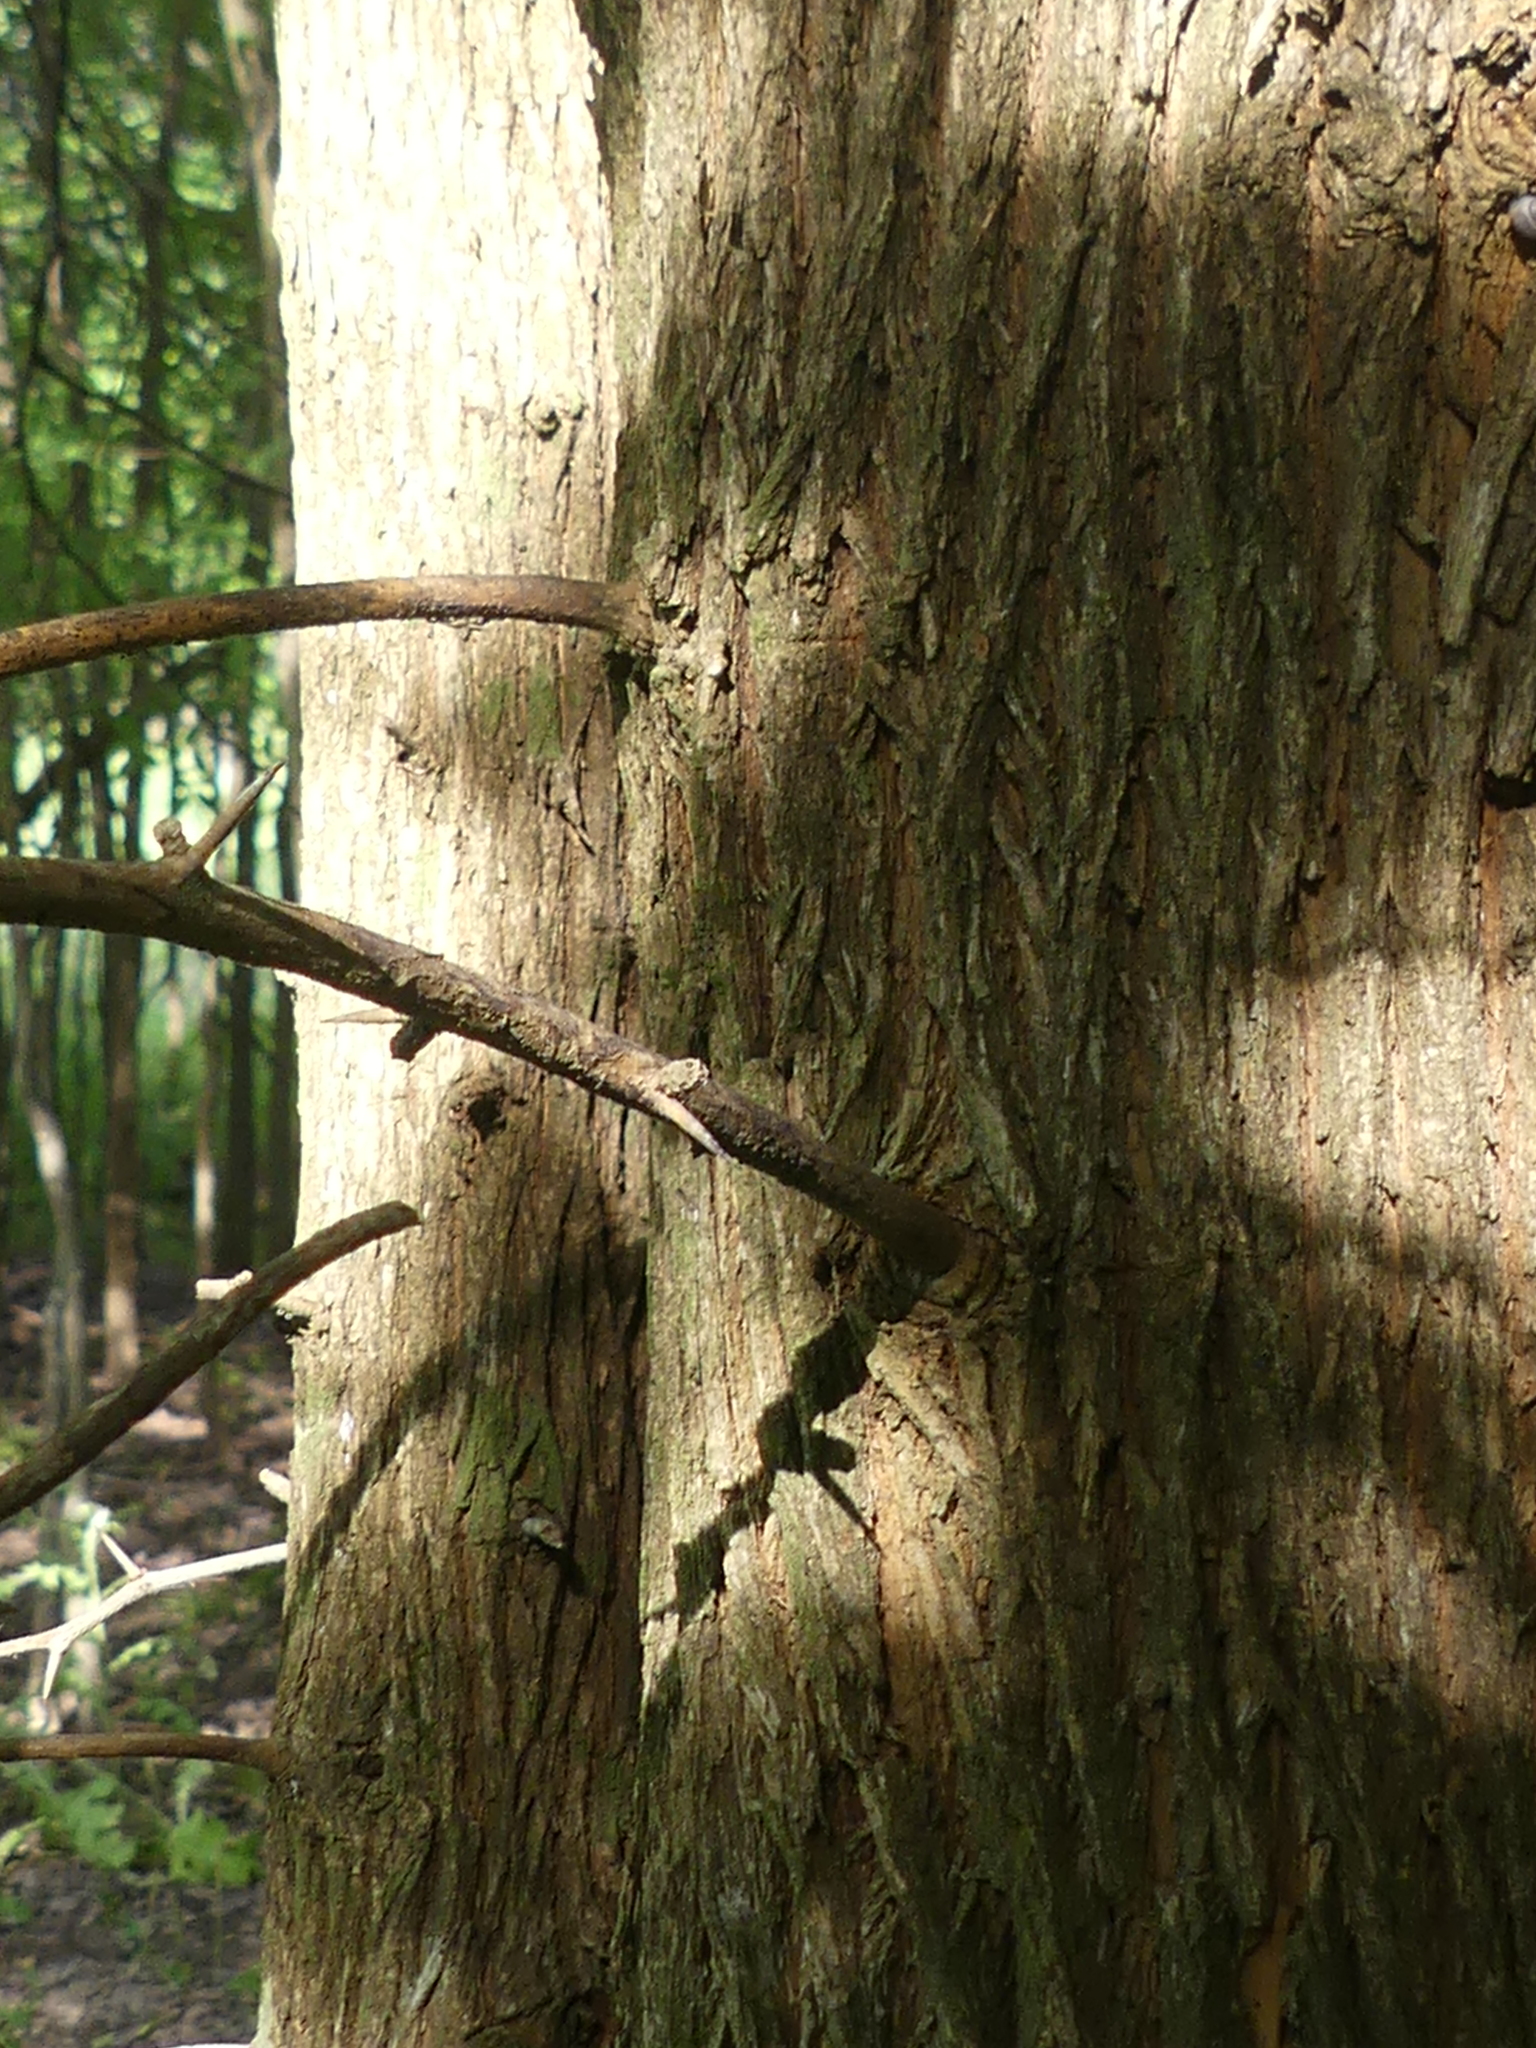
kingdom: Plantae
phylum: Tracheophyta
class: Magnoliopsida
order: Rosales
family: Moraceae
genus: Maclura
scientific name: Maclura pomifera
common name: Osage-orange
